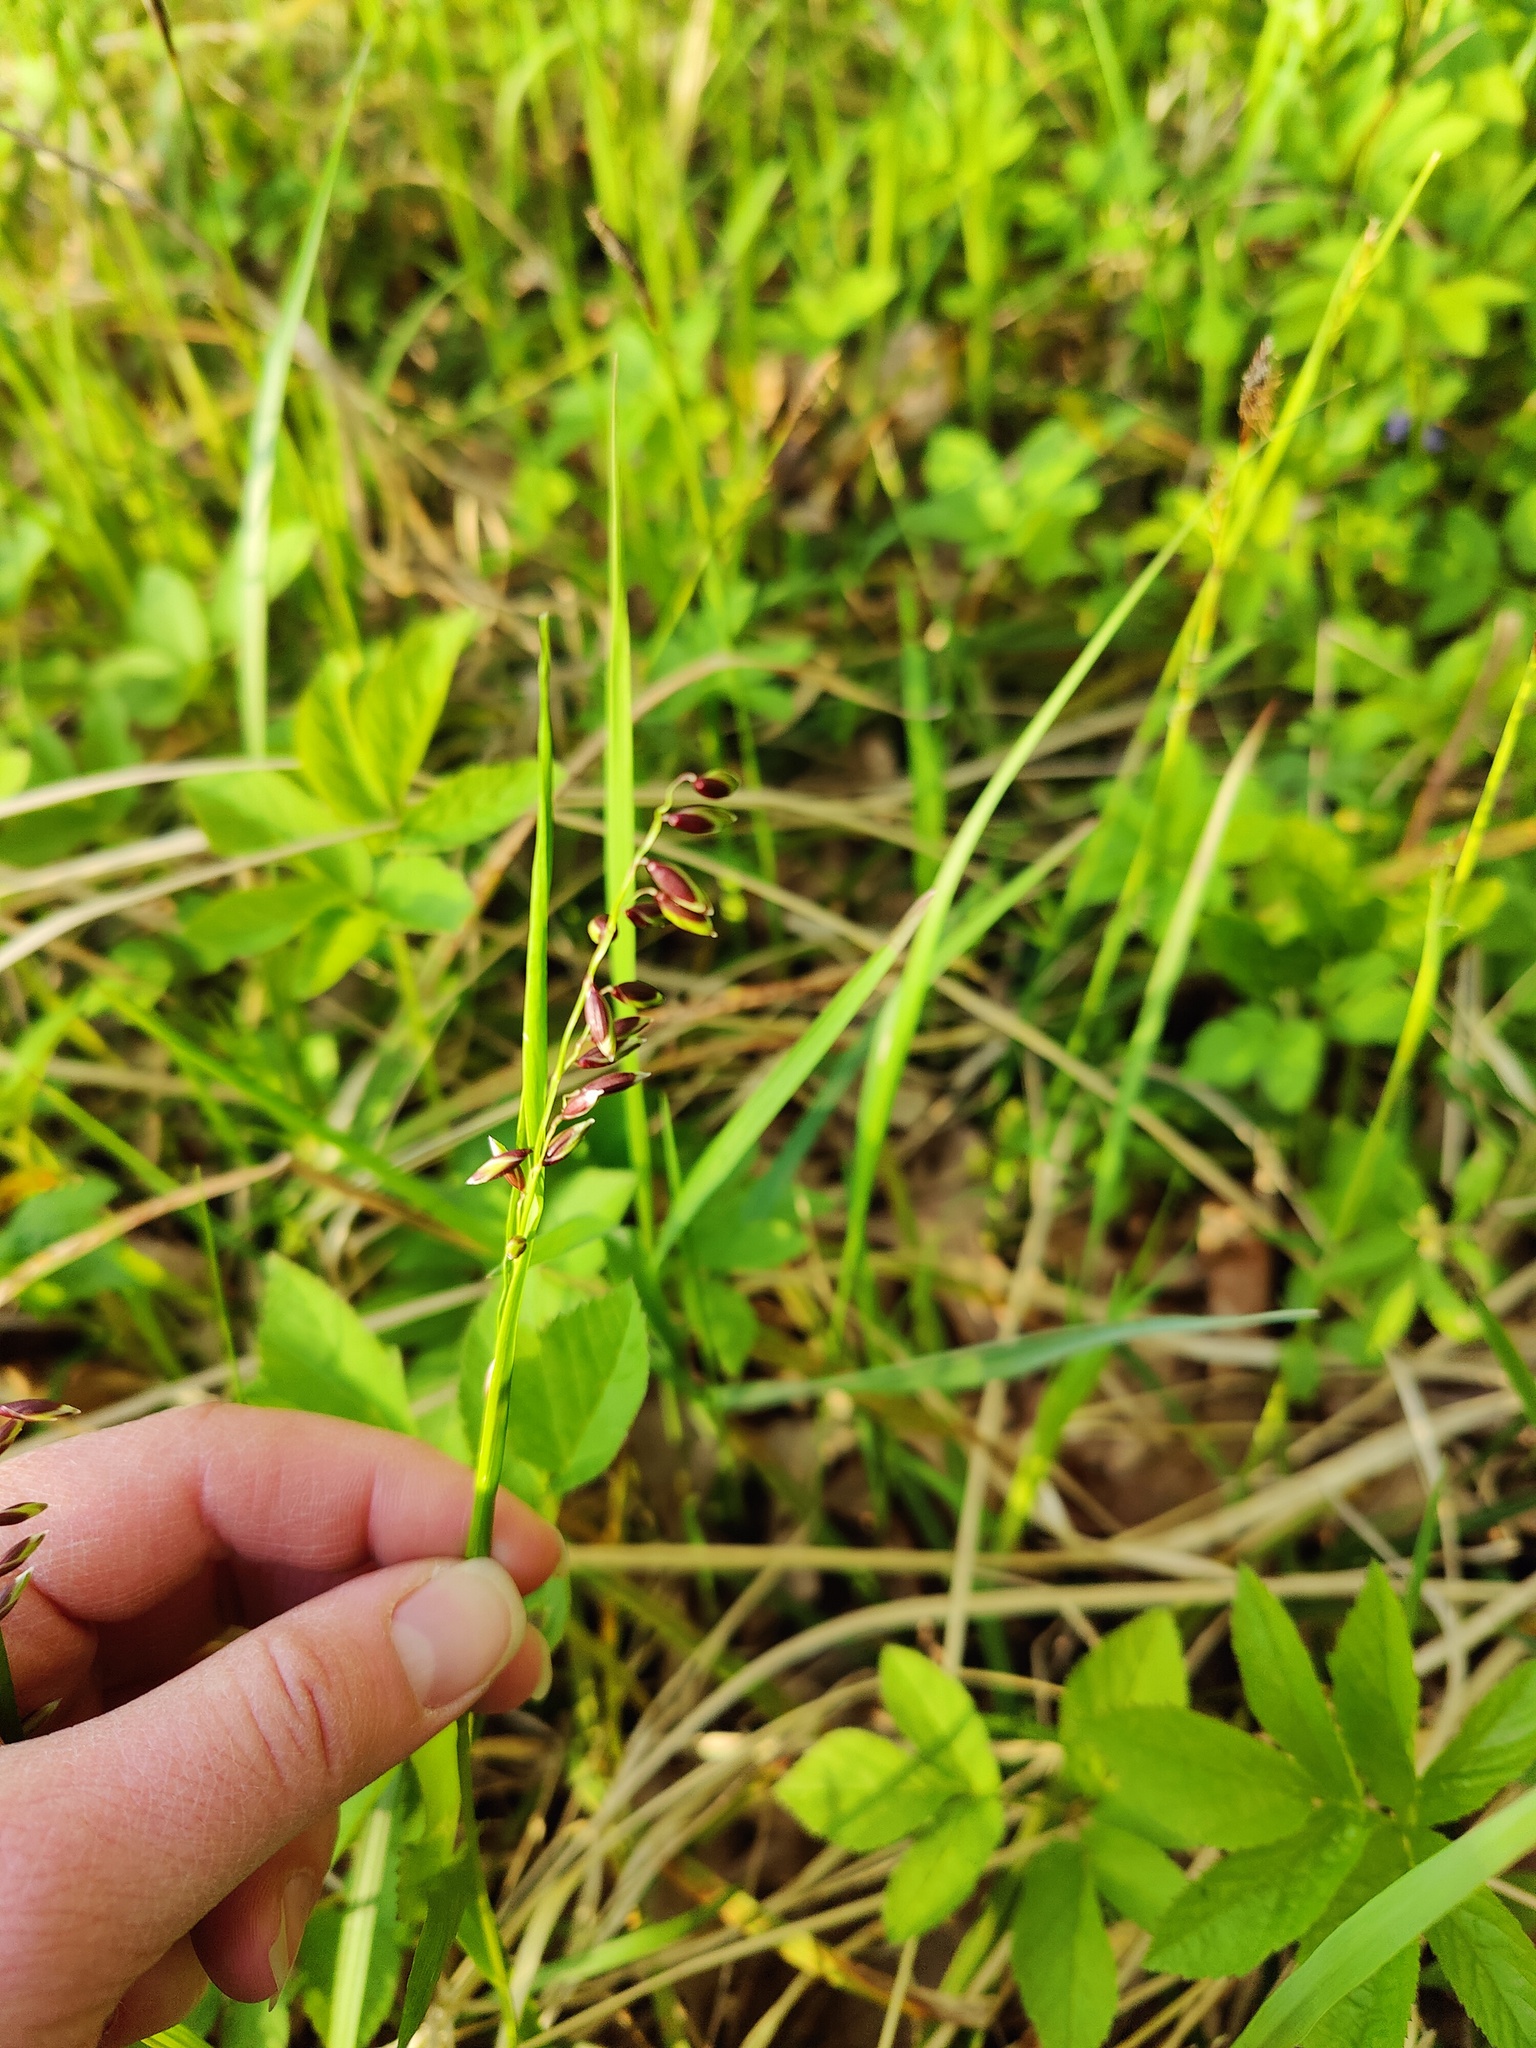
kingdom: Plantae
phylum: Tracheophyta
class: Liliopsida
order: Poales
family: Poaceae
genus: Melica
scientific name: Melica nutans
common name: Mountain melick
